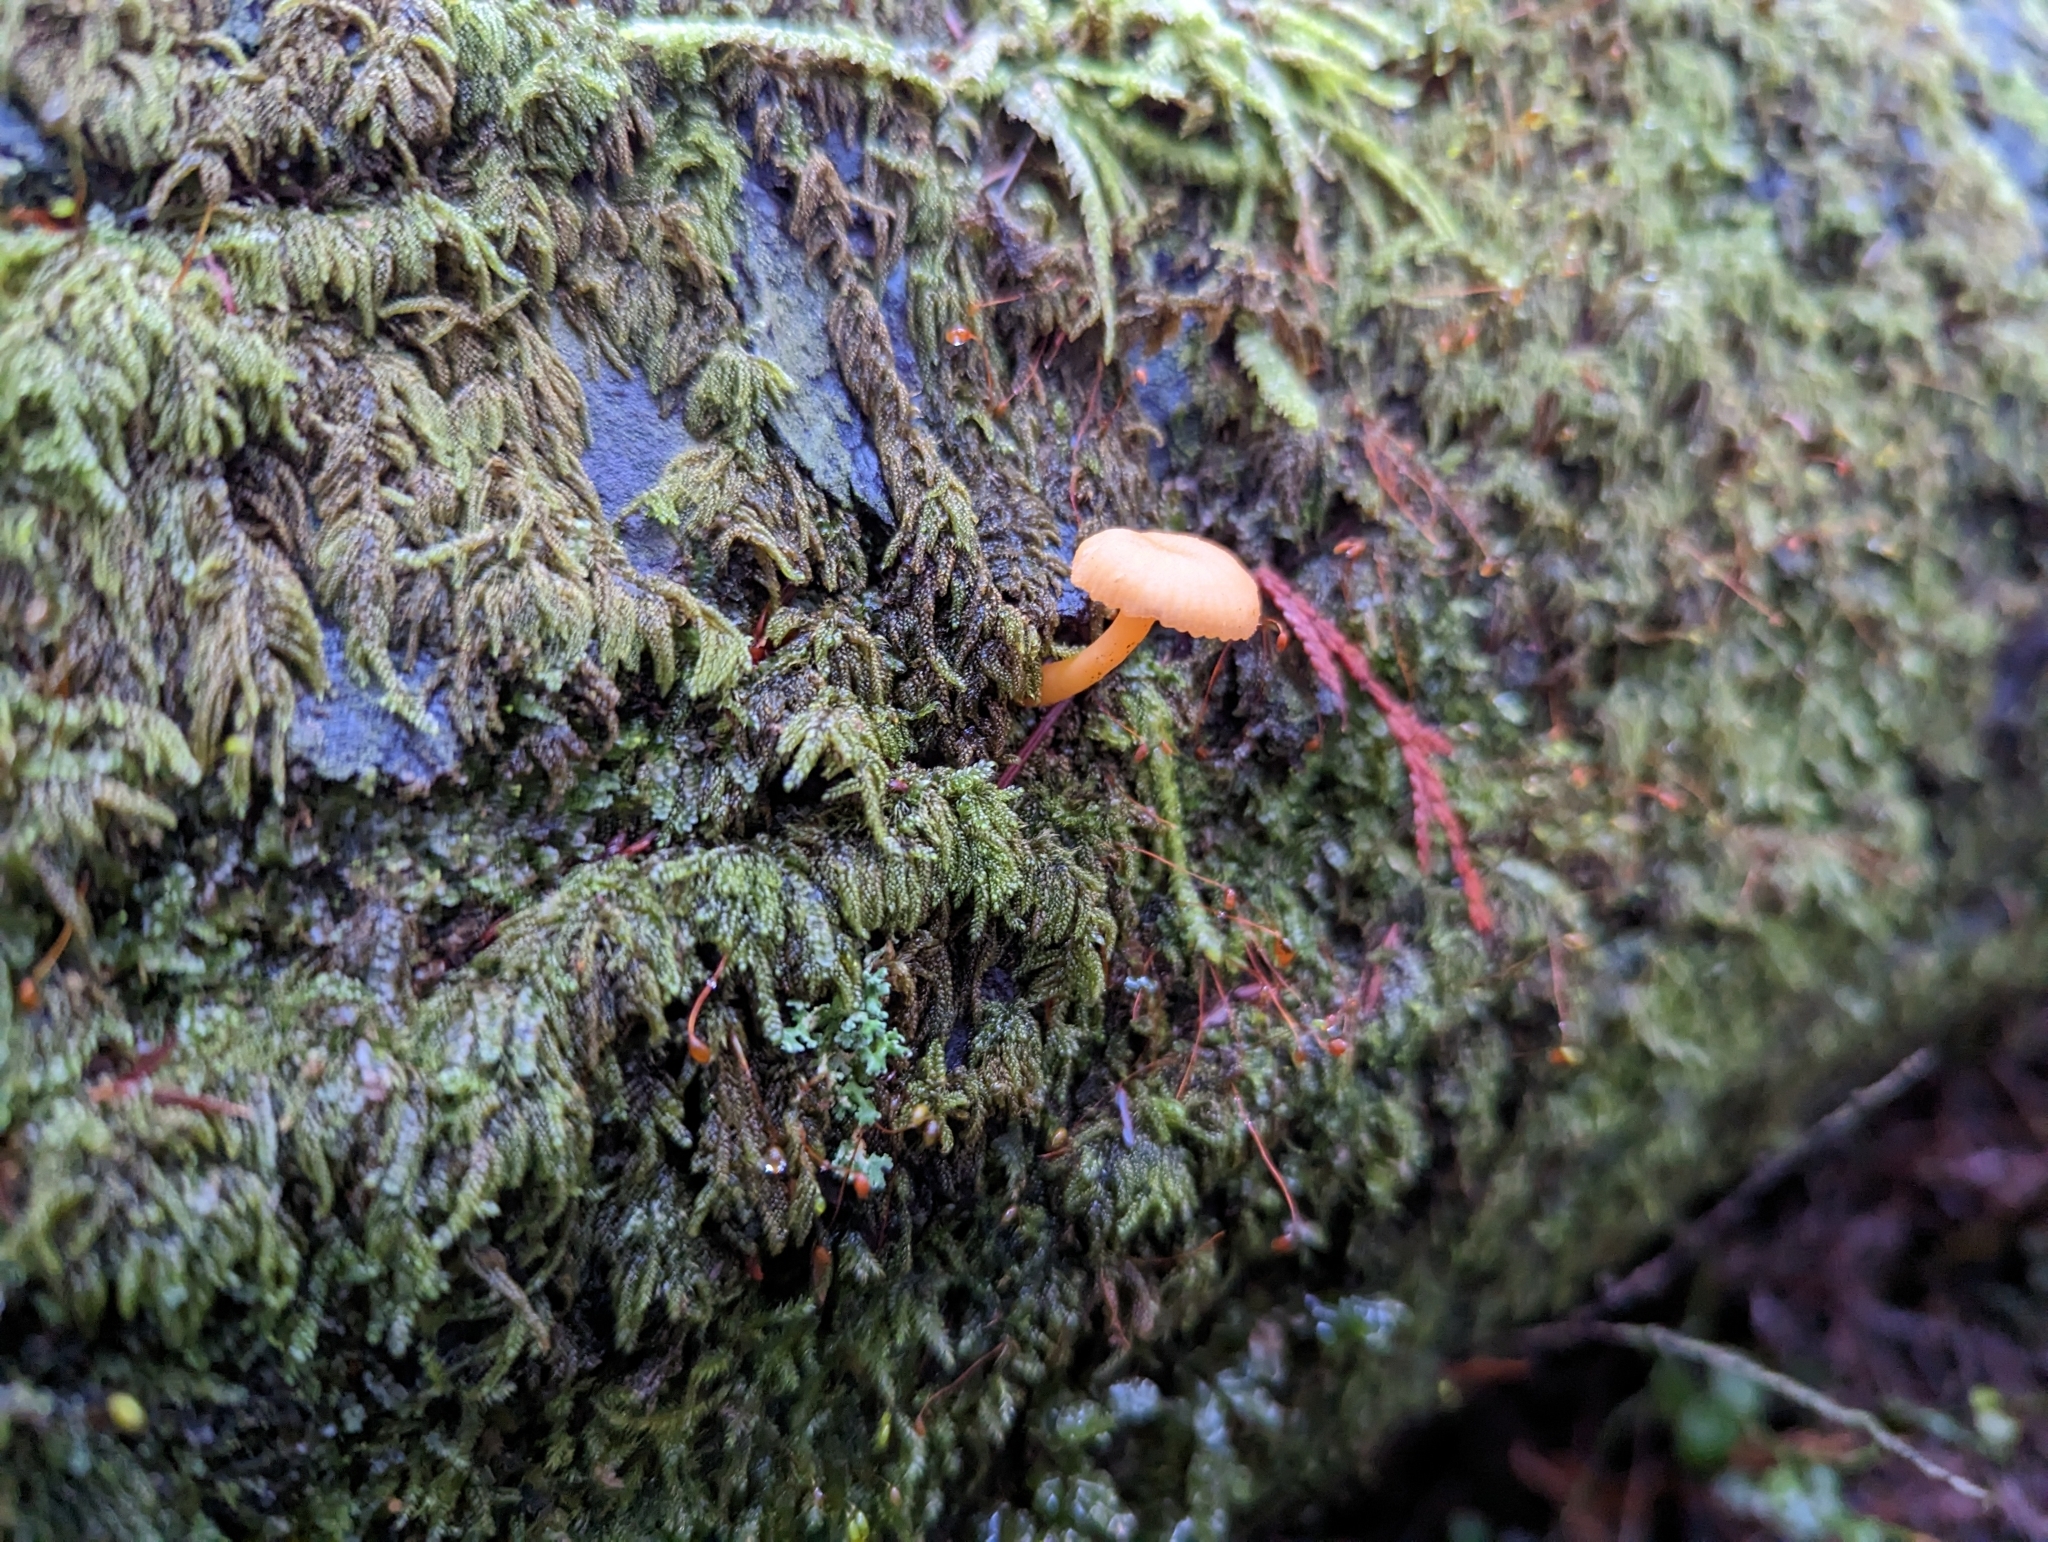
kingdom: Fungi
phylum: Basidiomycota
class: Agaricomycetes
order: Agaricales
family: Hygrophoraceae
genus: Chrysomphalina
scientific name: Chrysomphalina aurantiaca
